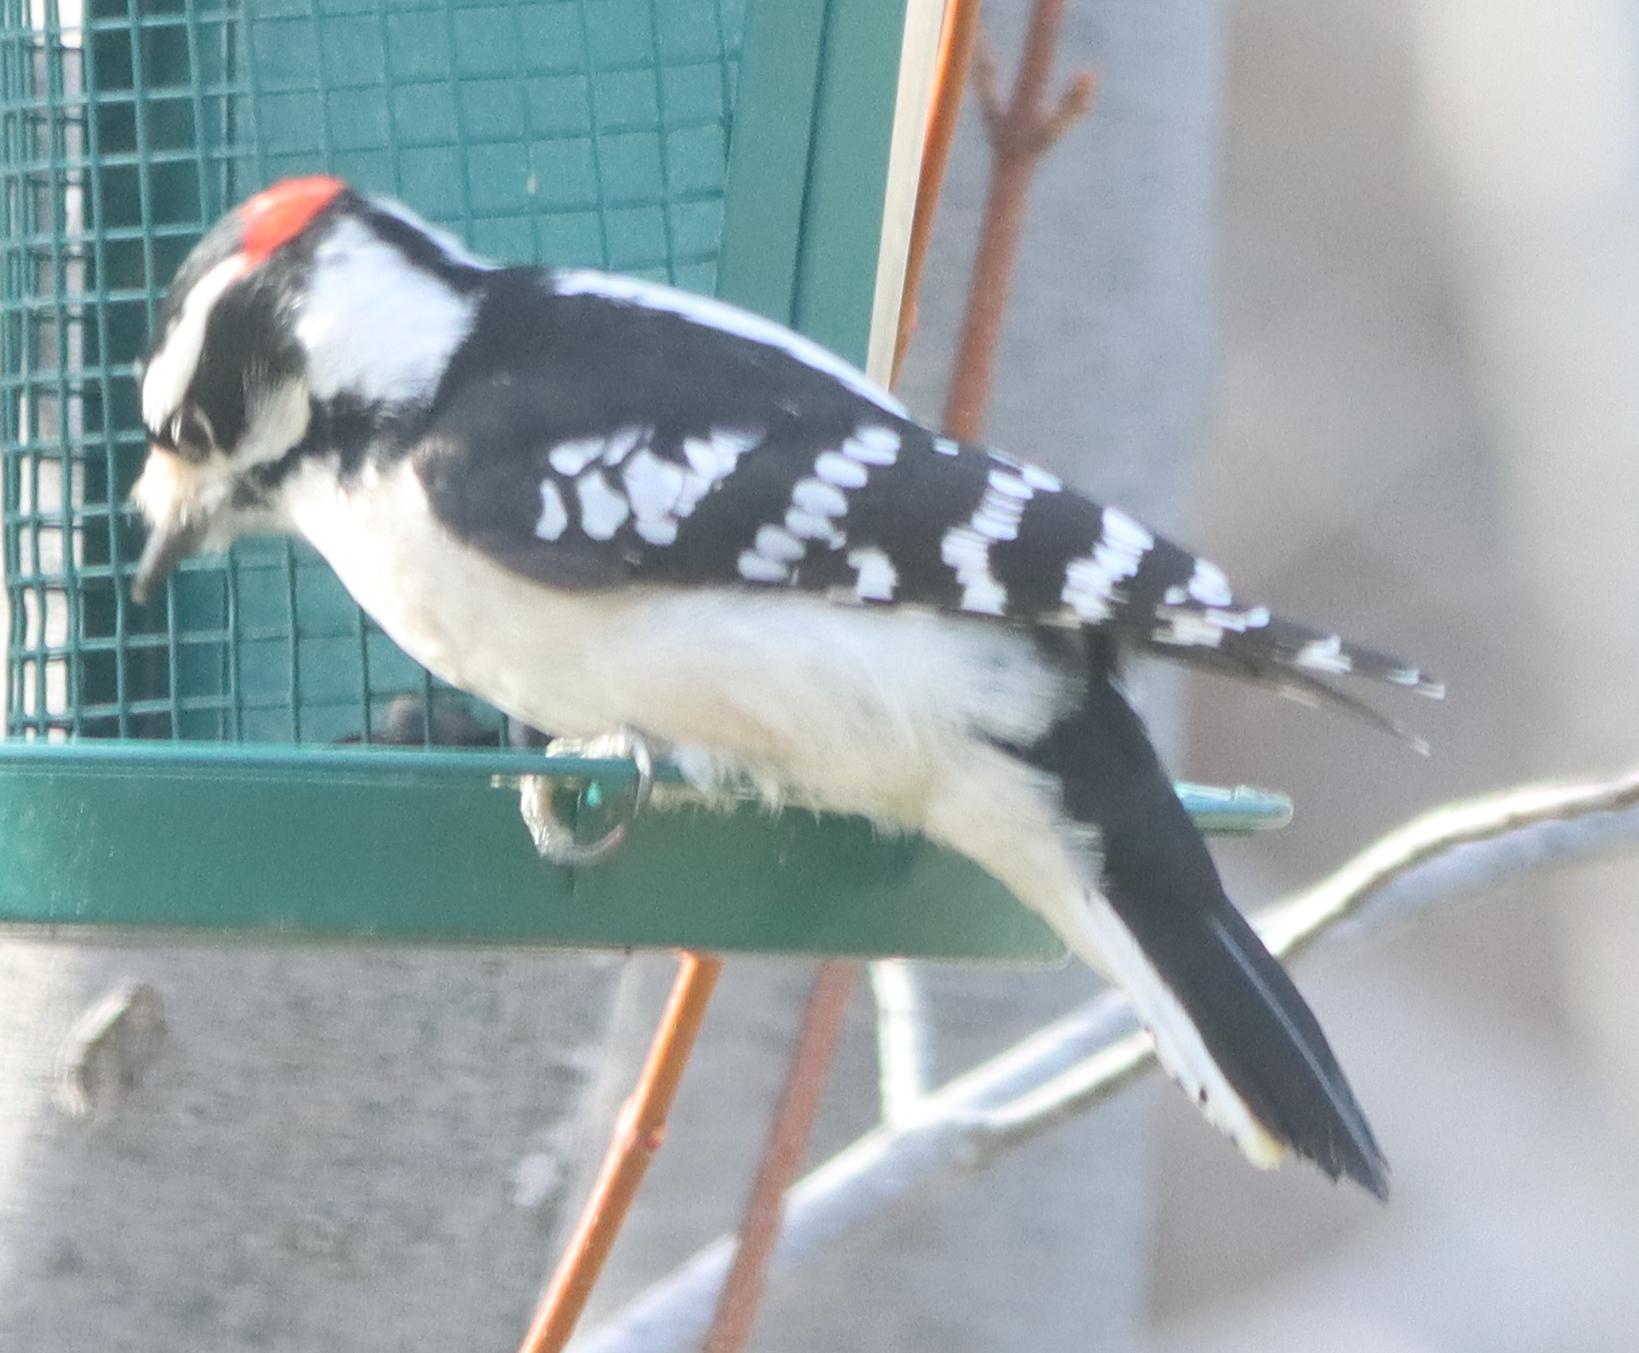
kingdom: Animalia
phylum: Chordata
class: Aves
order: Piciformes
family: Picidae
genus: Dryobates
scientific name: Dryobates pubescens
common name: Downy woodpecker
